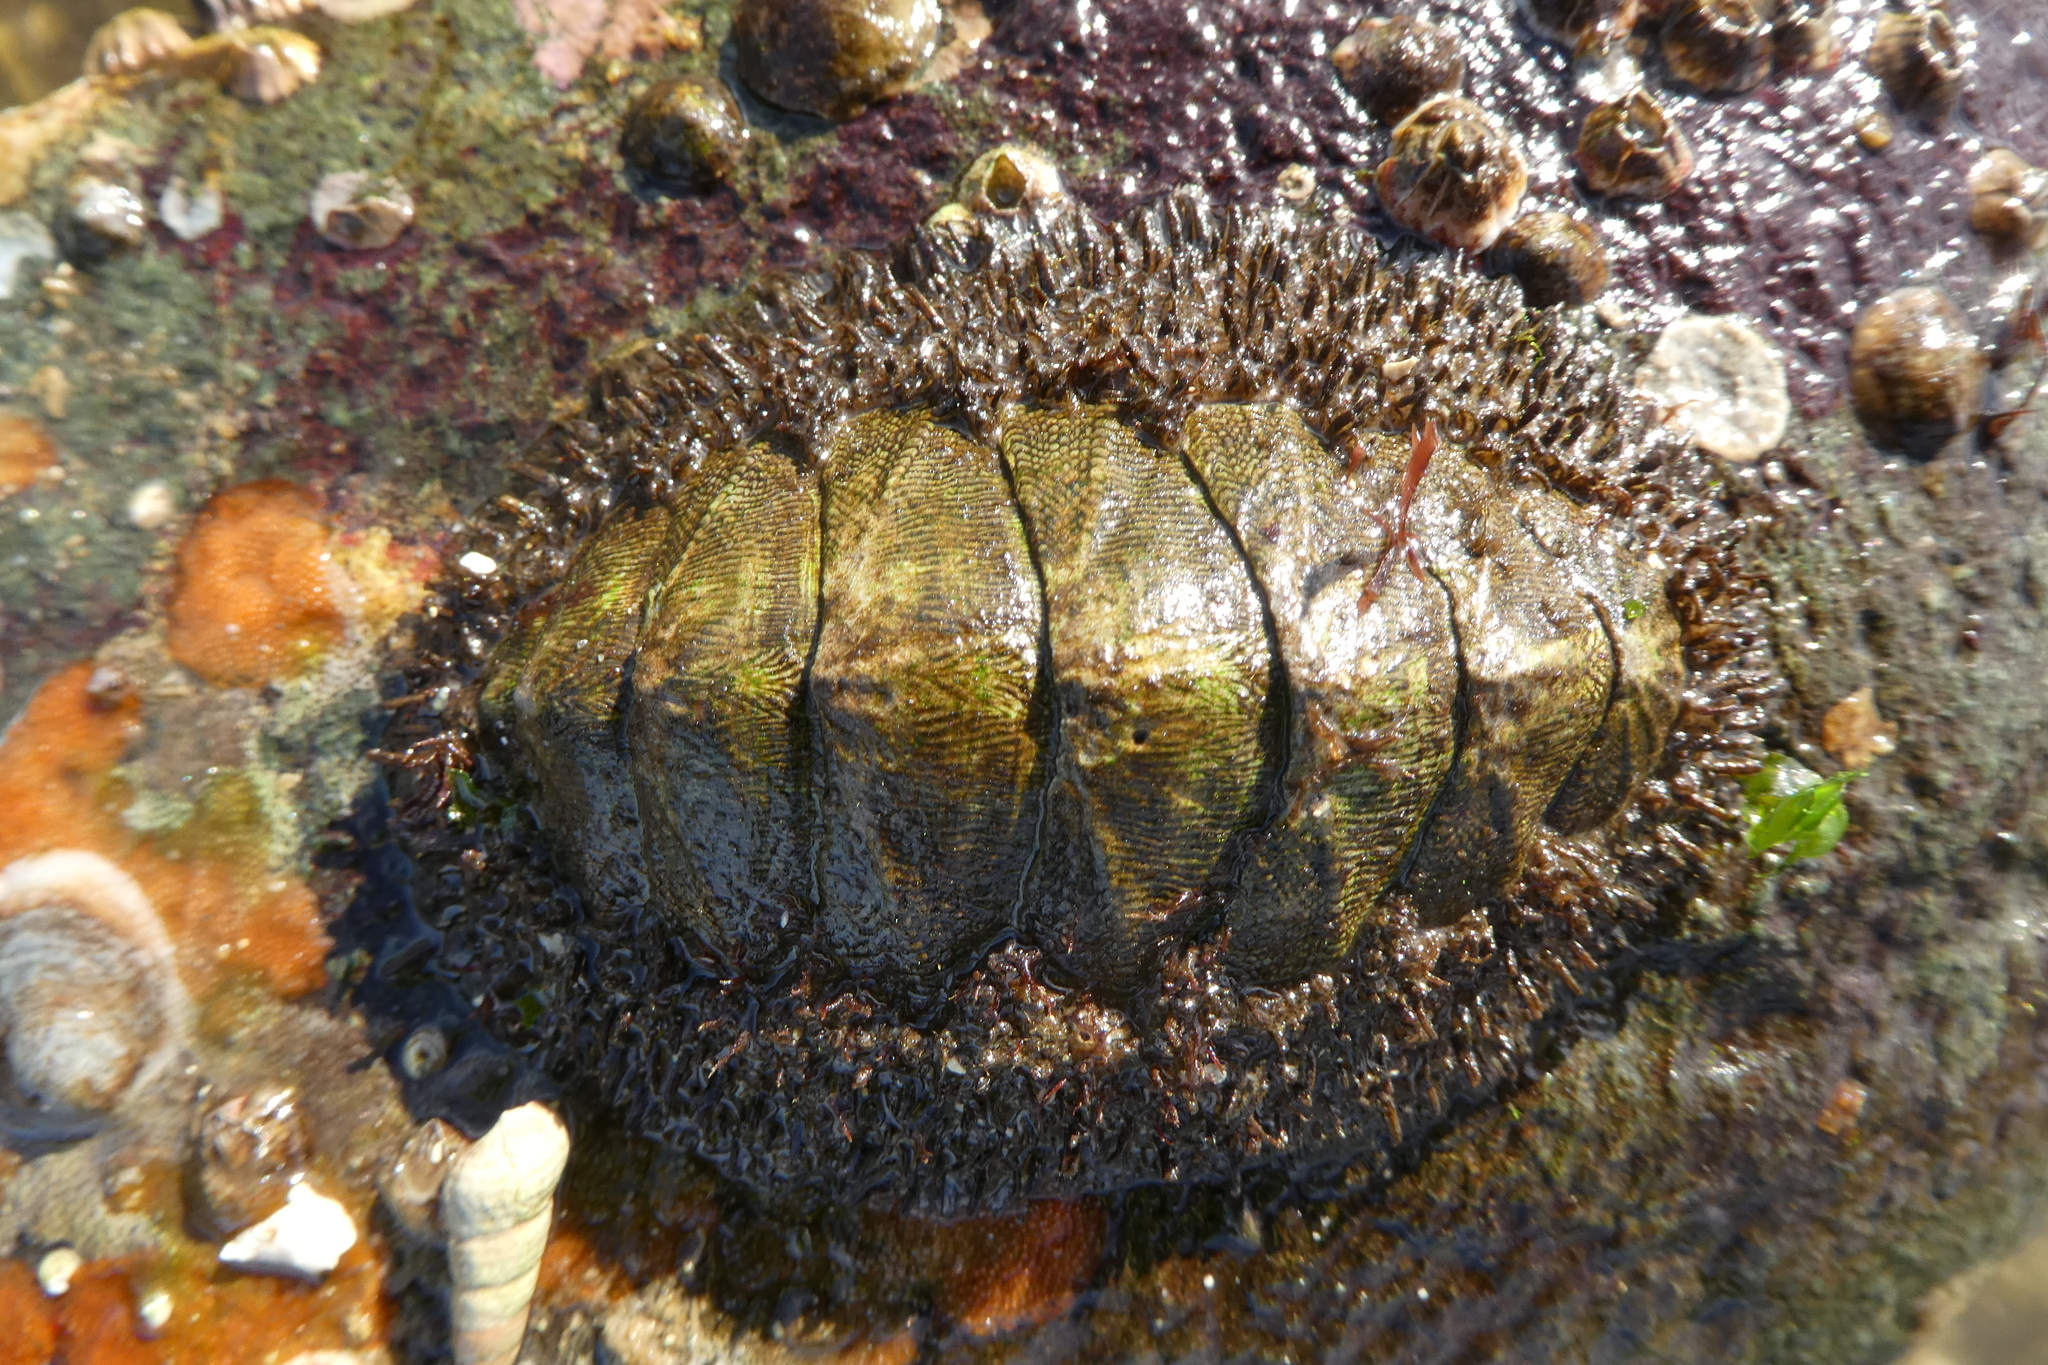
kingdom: Animalia
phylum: Mollusca
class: Polyplacophora
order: Chitonida
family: Mopaliidae
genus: Mopalia
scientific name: Mopalia muscosa
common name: Mossy chiton
